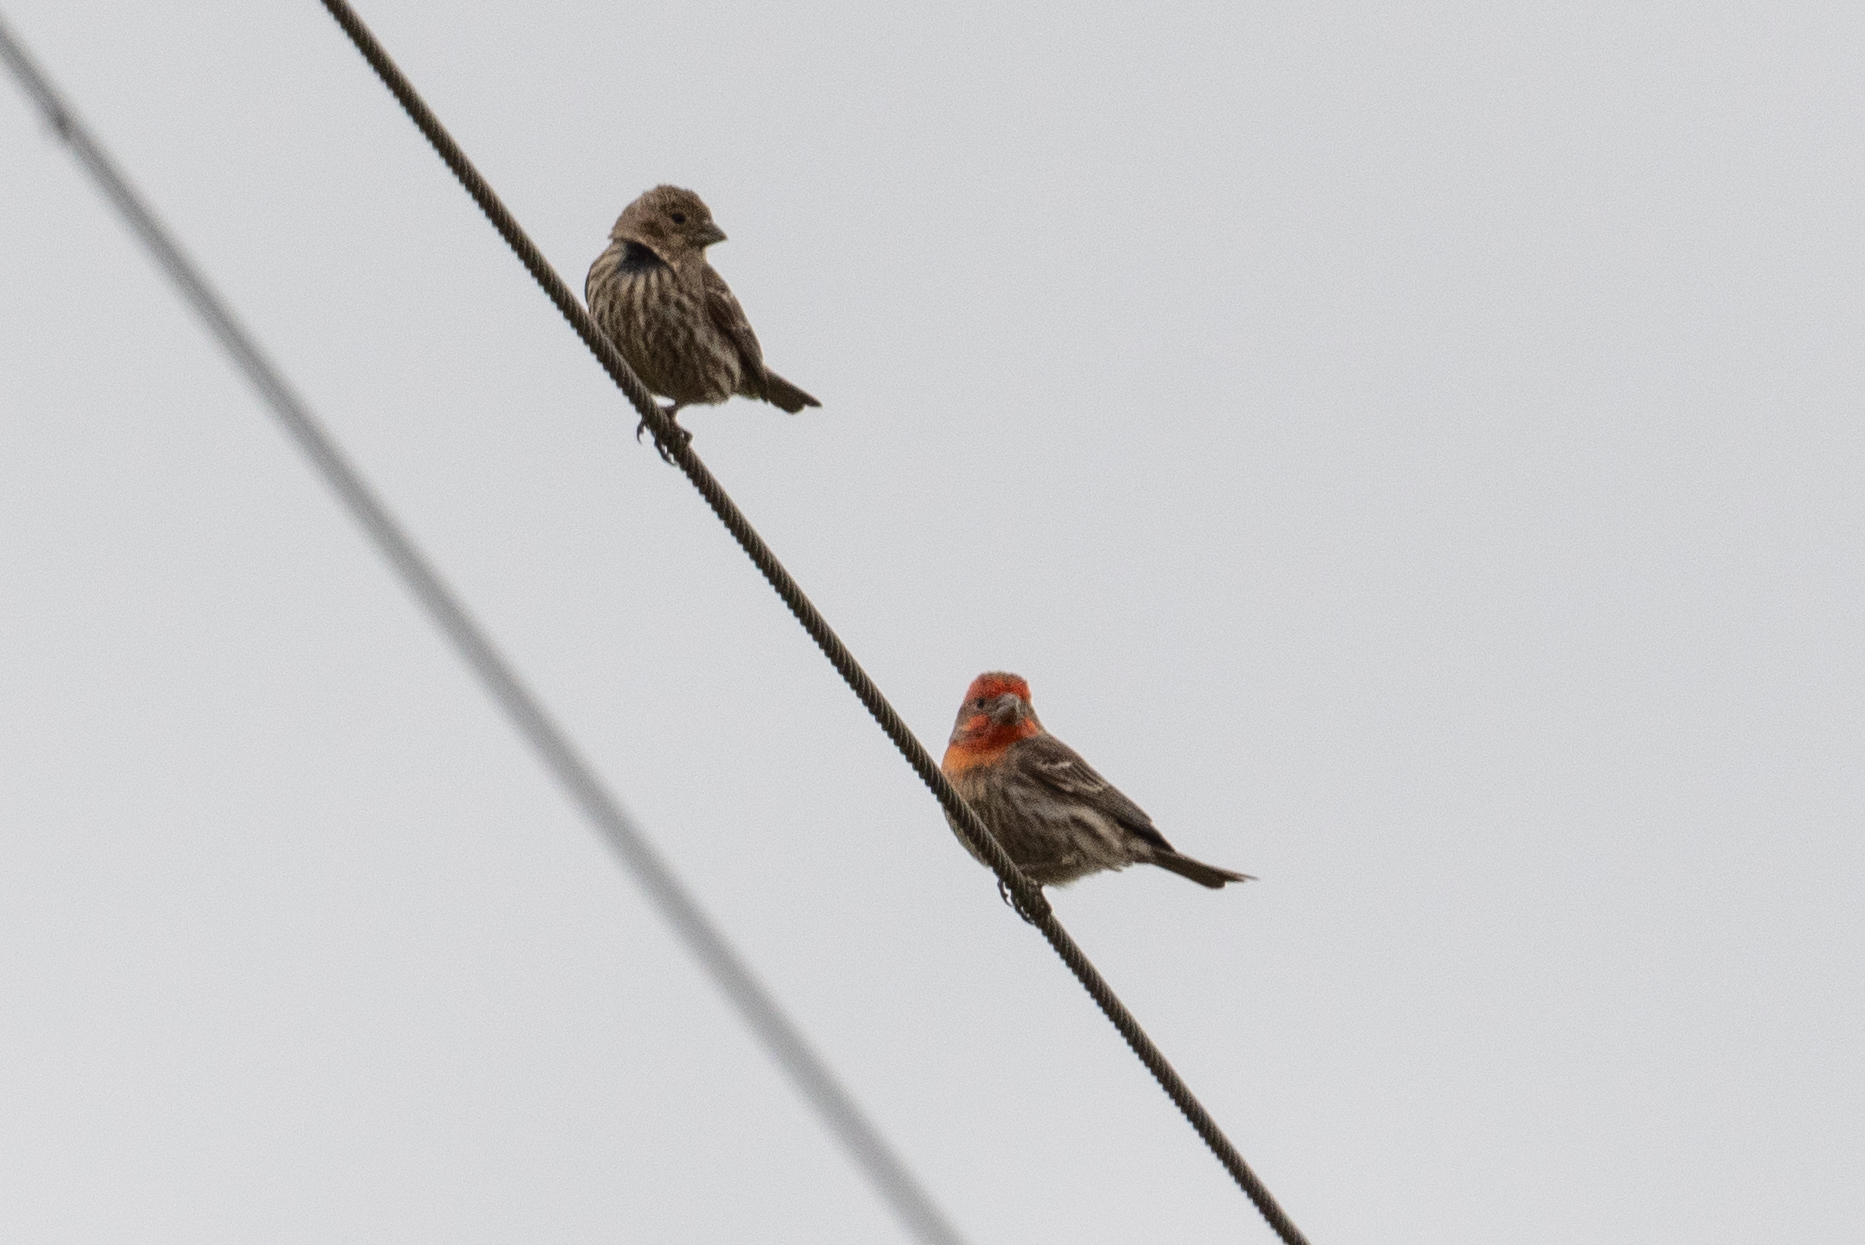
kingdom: Animalia
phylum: Chordata
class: Aves
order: Passeriformes
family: Fringillidae
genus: Haemorhous
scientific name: Haemorhous mexicanus
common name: House finch
